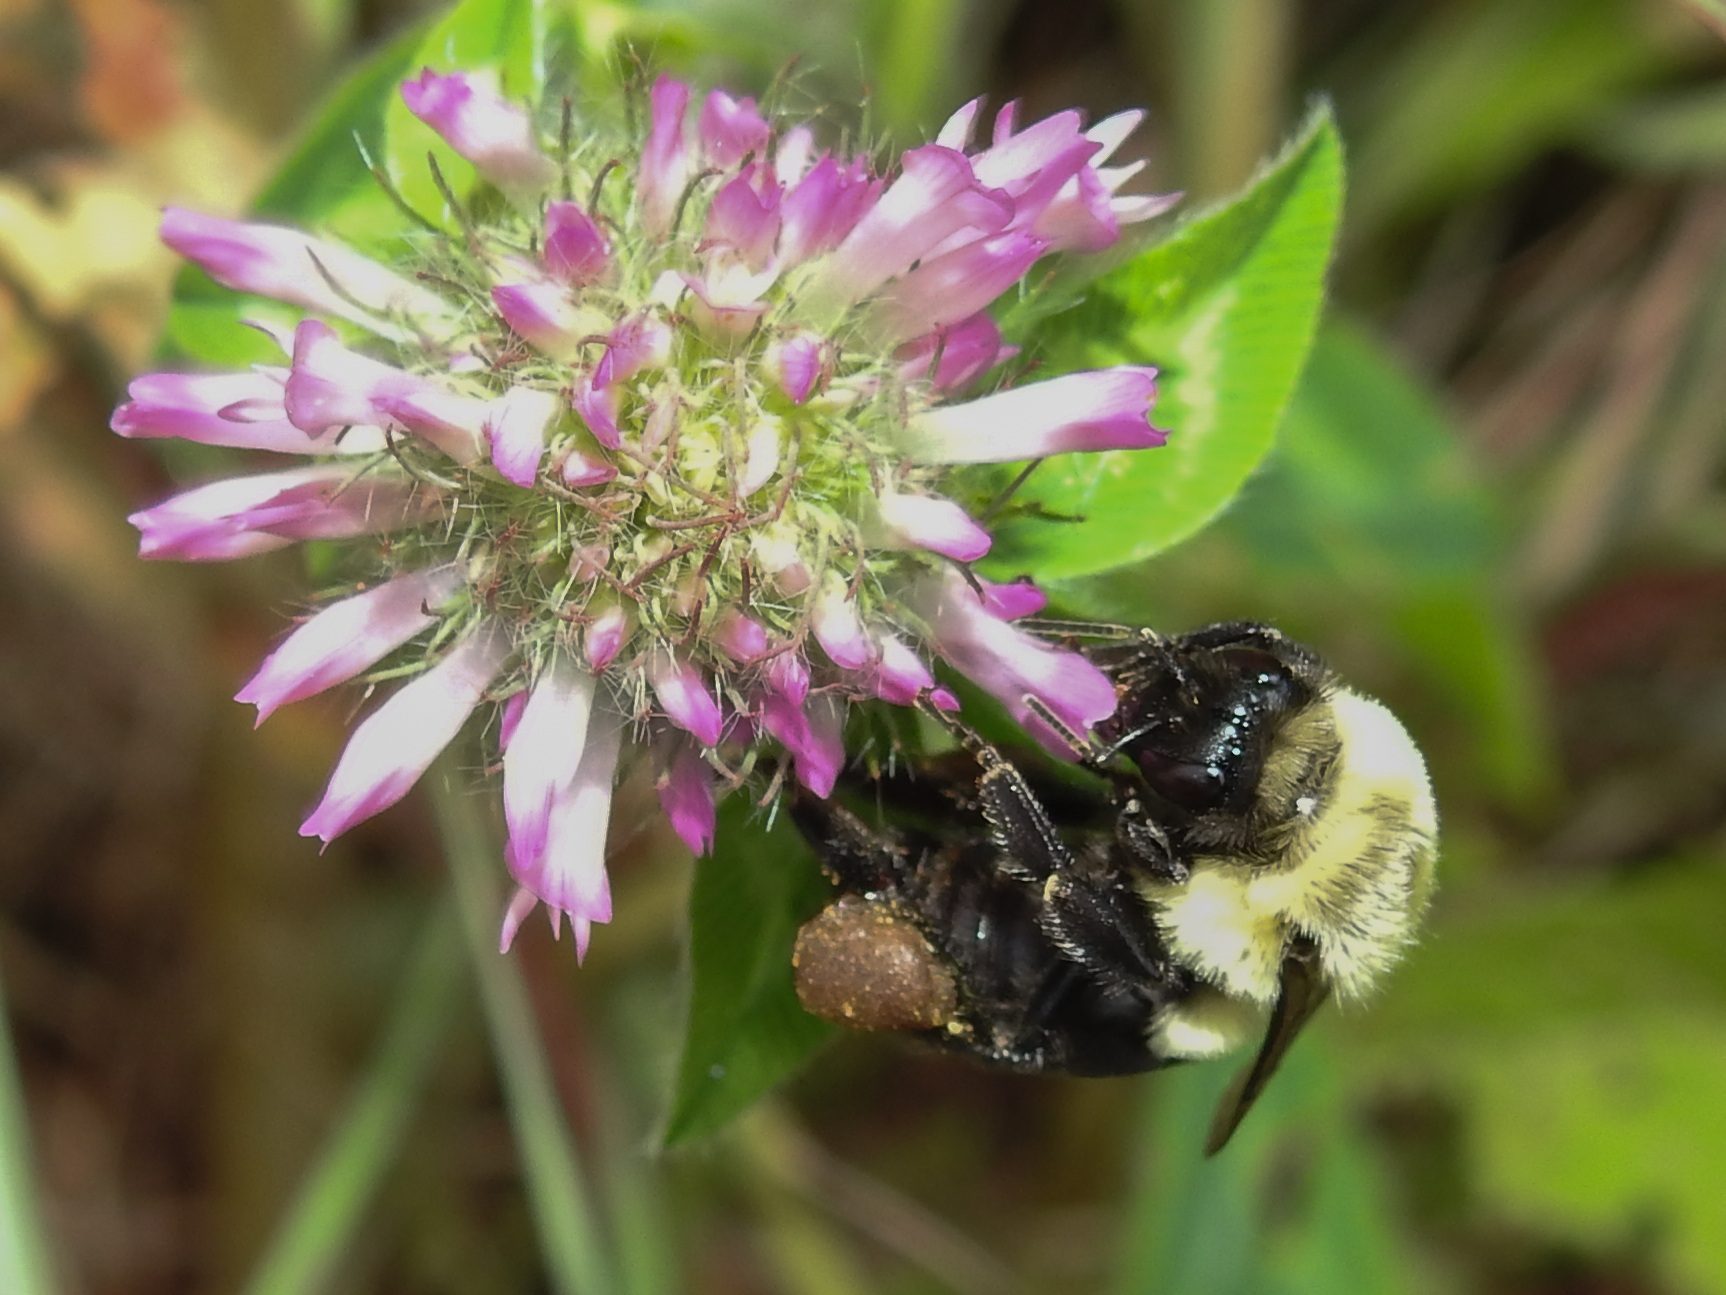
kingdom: Animalia
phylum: Arthropoda
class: Insecta
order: Hymenoptera
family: Apidae
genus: Bombus
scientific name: Bombus impatiens
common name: Common eastern bumble bee
